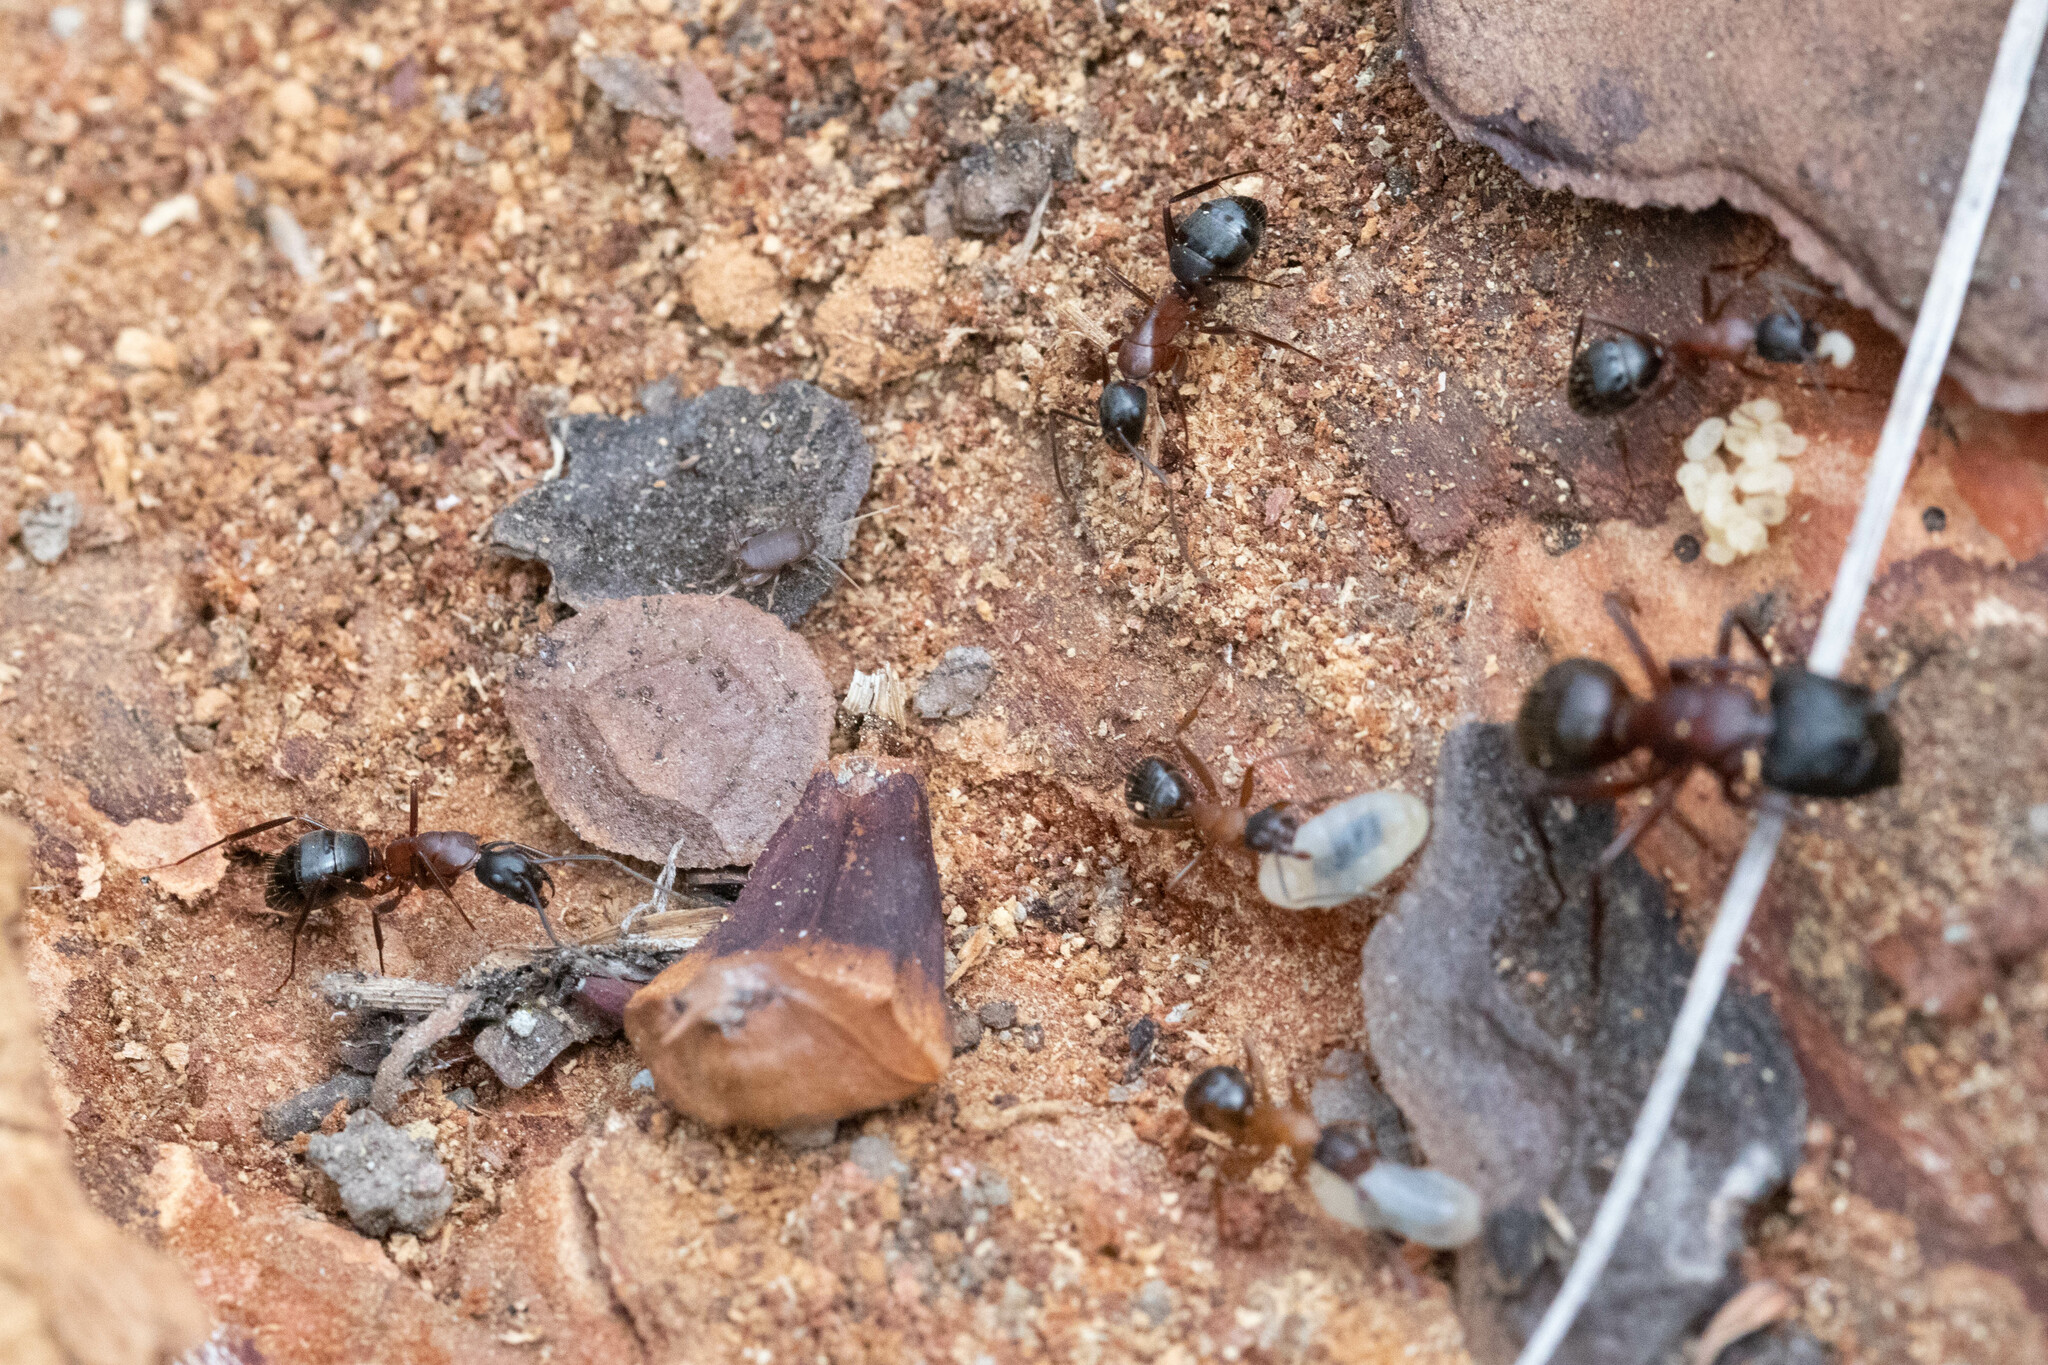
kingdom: Animalia
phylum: Arthropoda
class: Insecta
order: Hymenoptera
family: Formicidae
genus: Camponotus
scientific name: Camponotus vicinus
